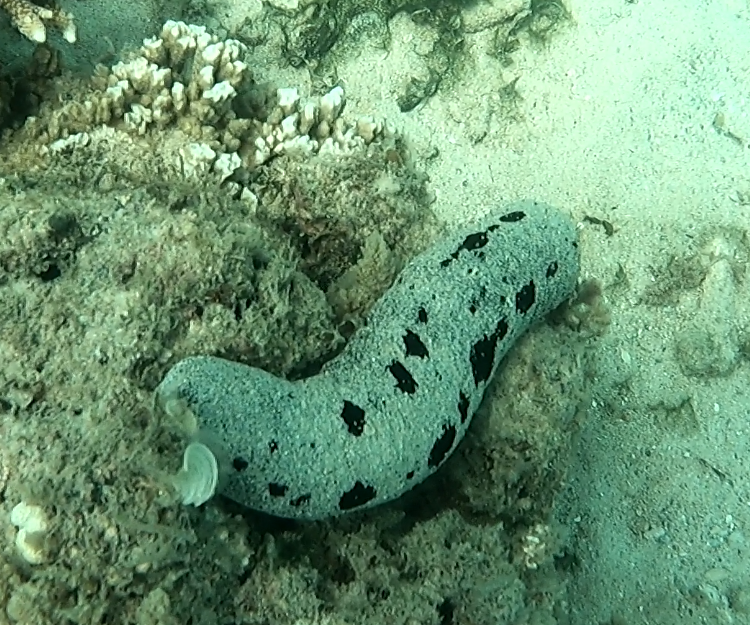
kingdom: Animalia
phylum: Echinodermata
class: Holothuroidea
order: Holothuriida
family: Holothuriidae
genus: Holothuria
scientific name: Holothuria atra
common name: Lollyfish
